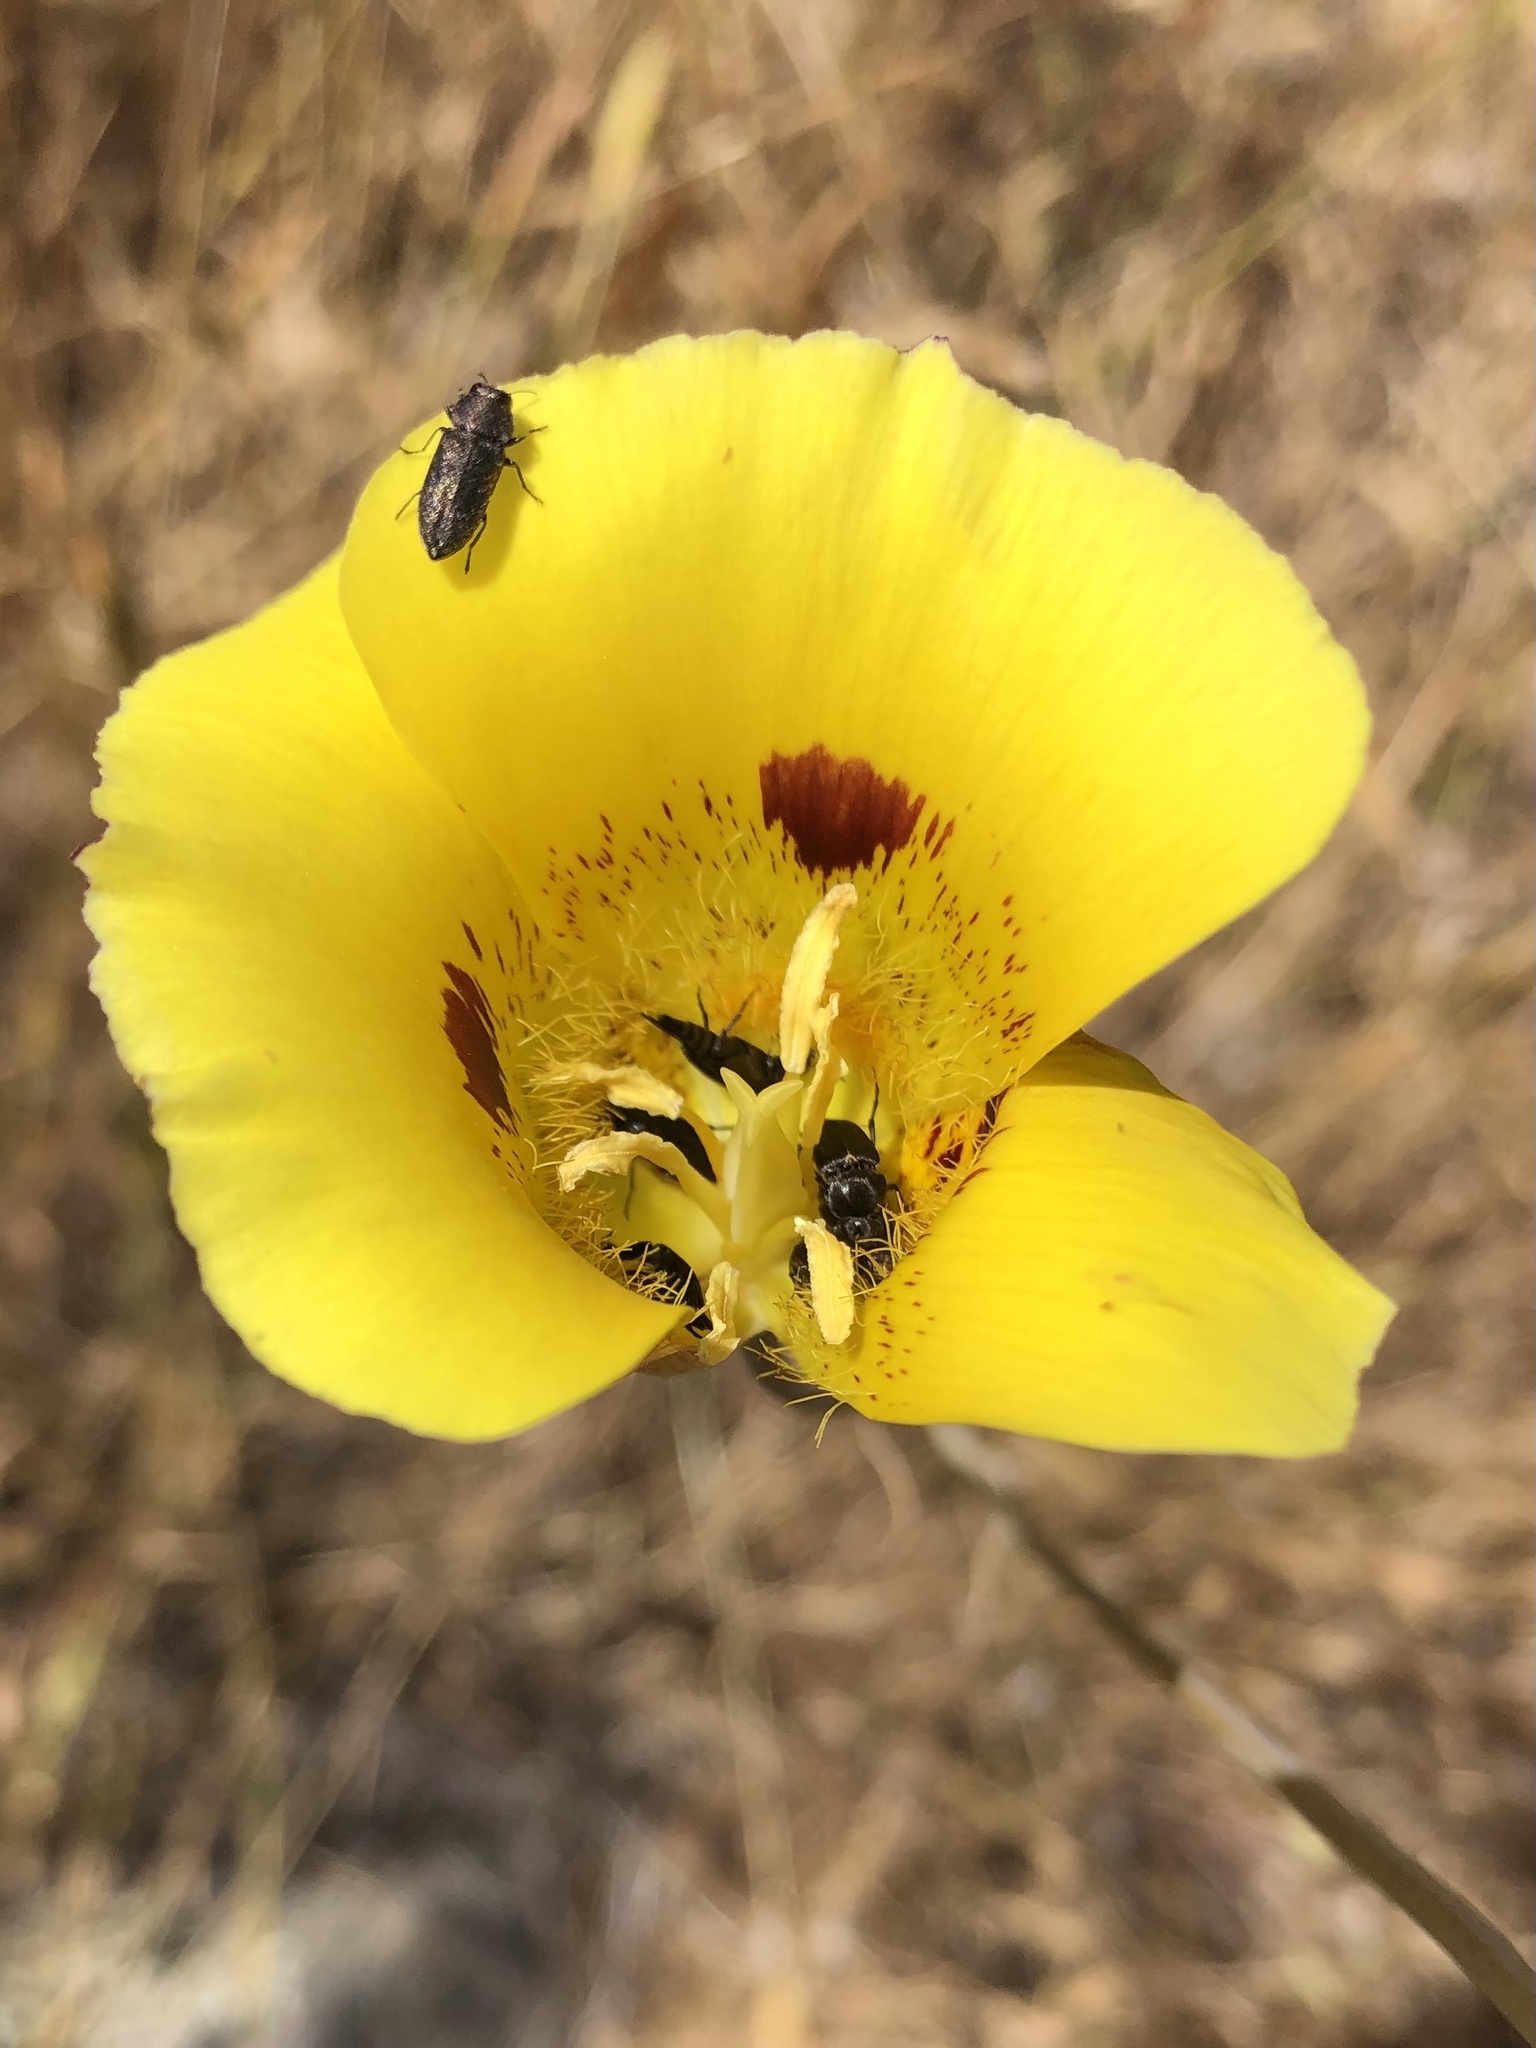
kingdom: Plantae
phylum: Tracheophyta
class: Liliopsida
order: Liliales
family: Liliaceae
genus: Calochortus
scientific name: Calochortus luteus
